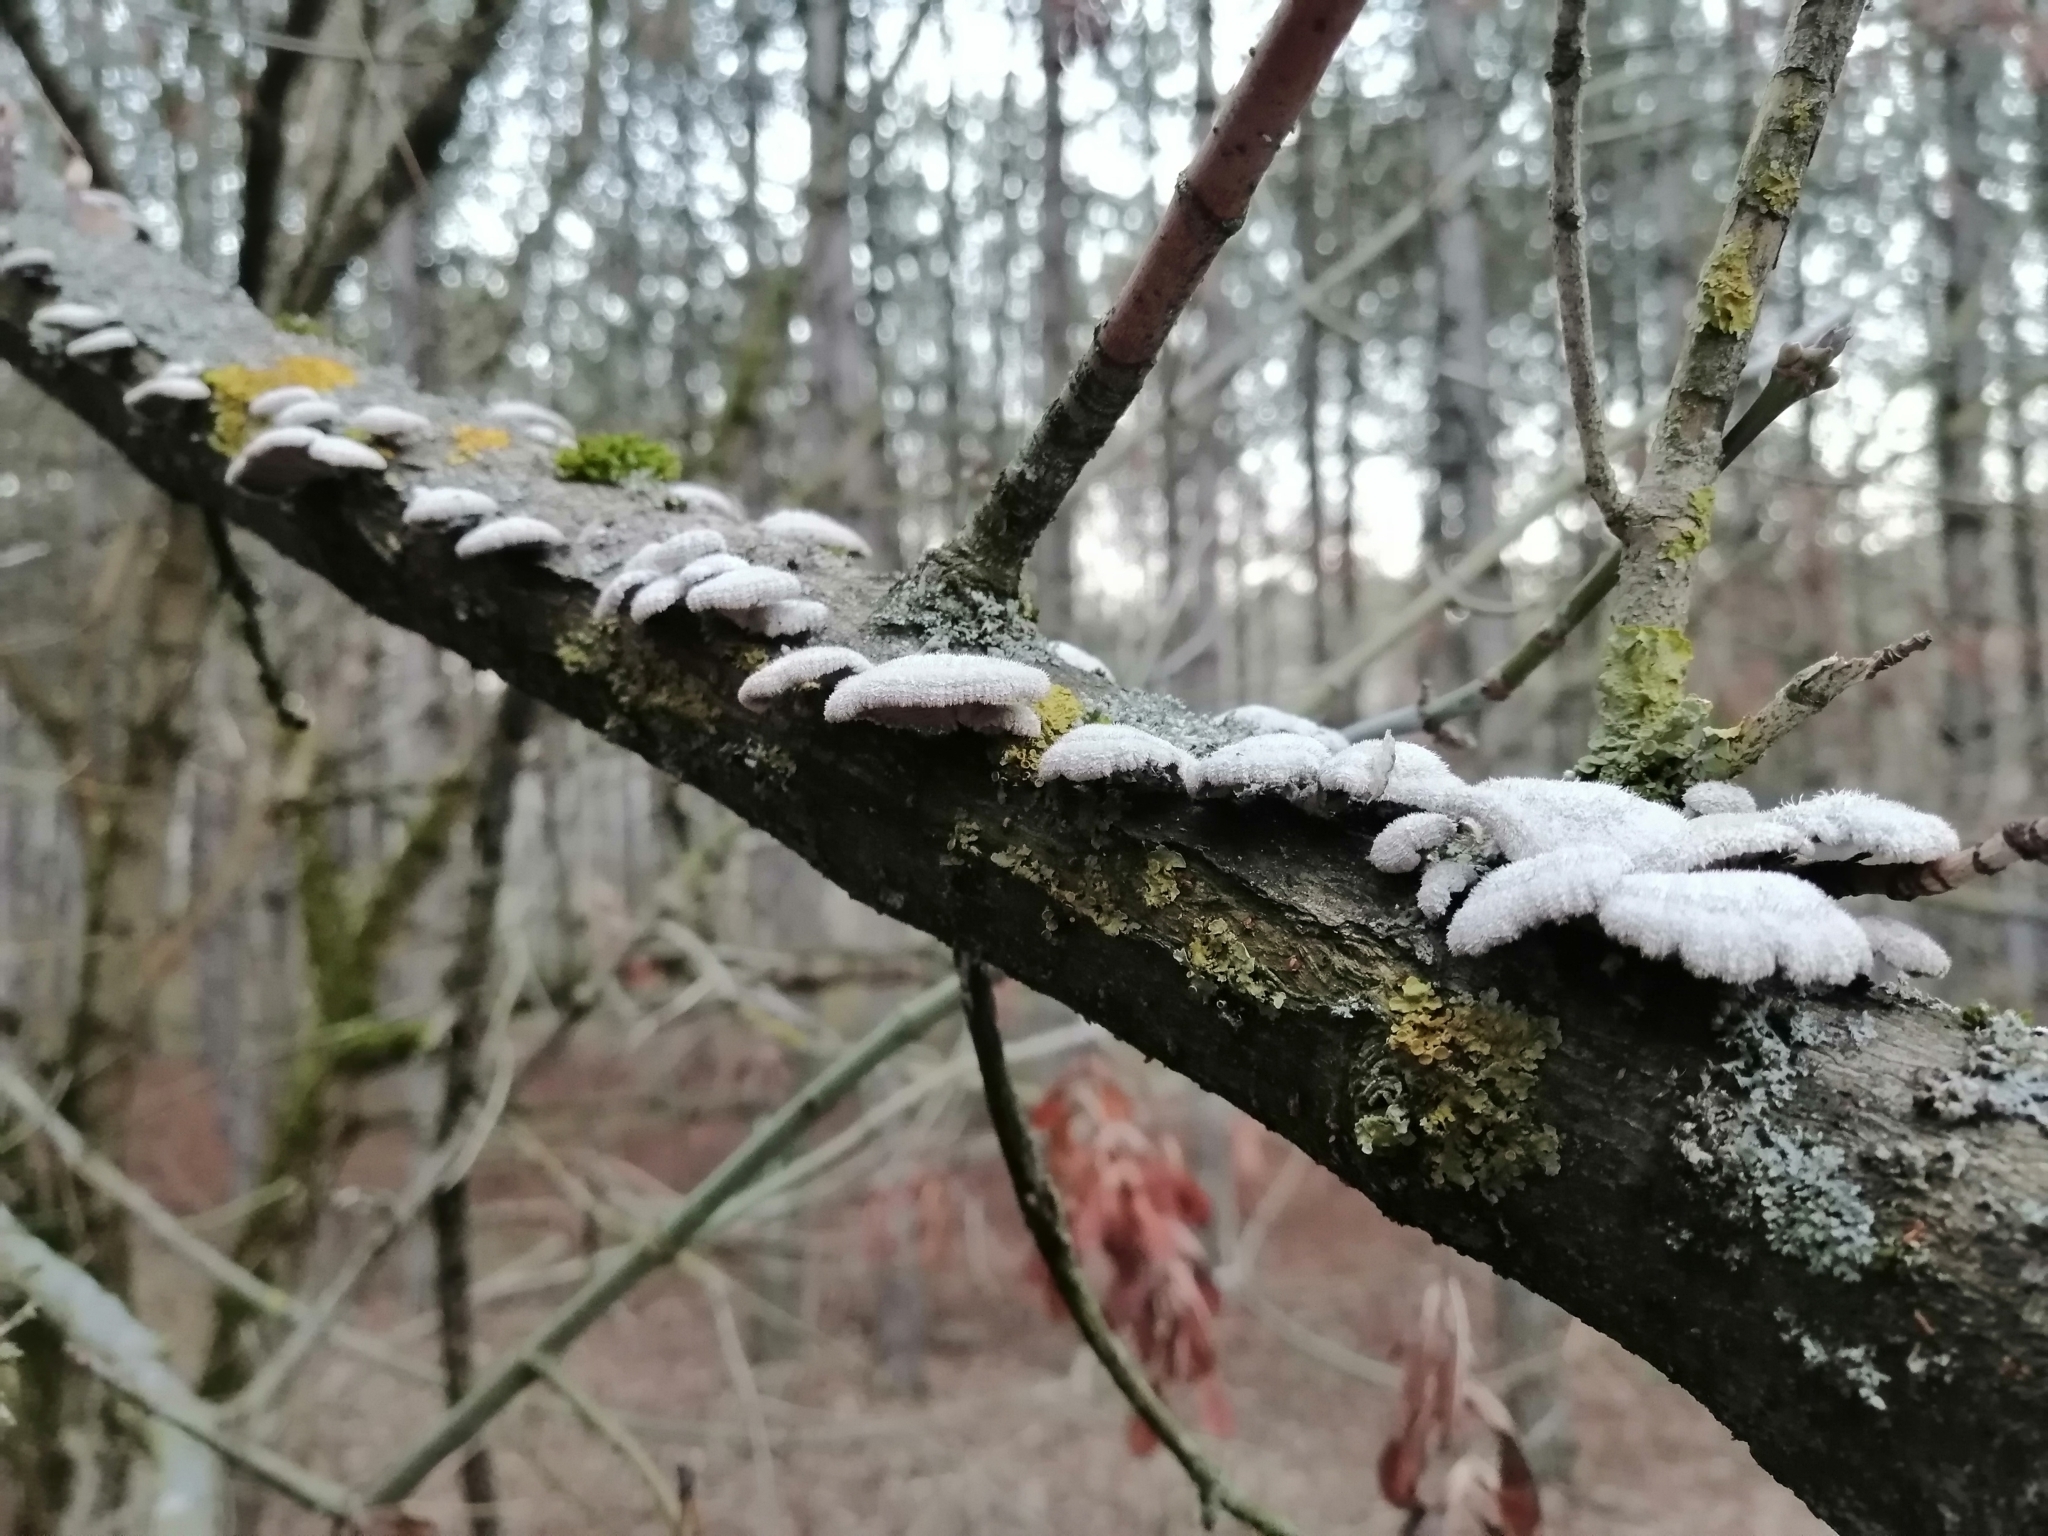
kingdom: Fungi
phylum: Basidiomycota
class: Agaricomycetes
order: Agaricales
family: Schizophyllaceae
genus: Schizophyllum
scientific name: Schizophyllum commune
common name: Common porecrust
